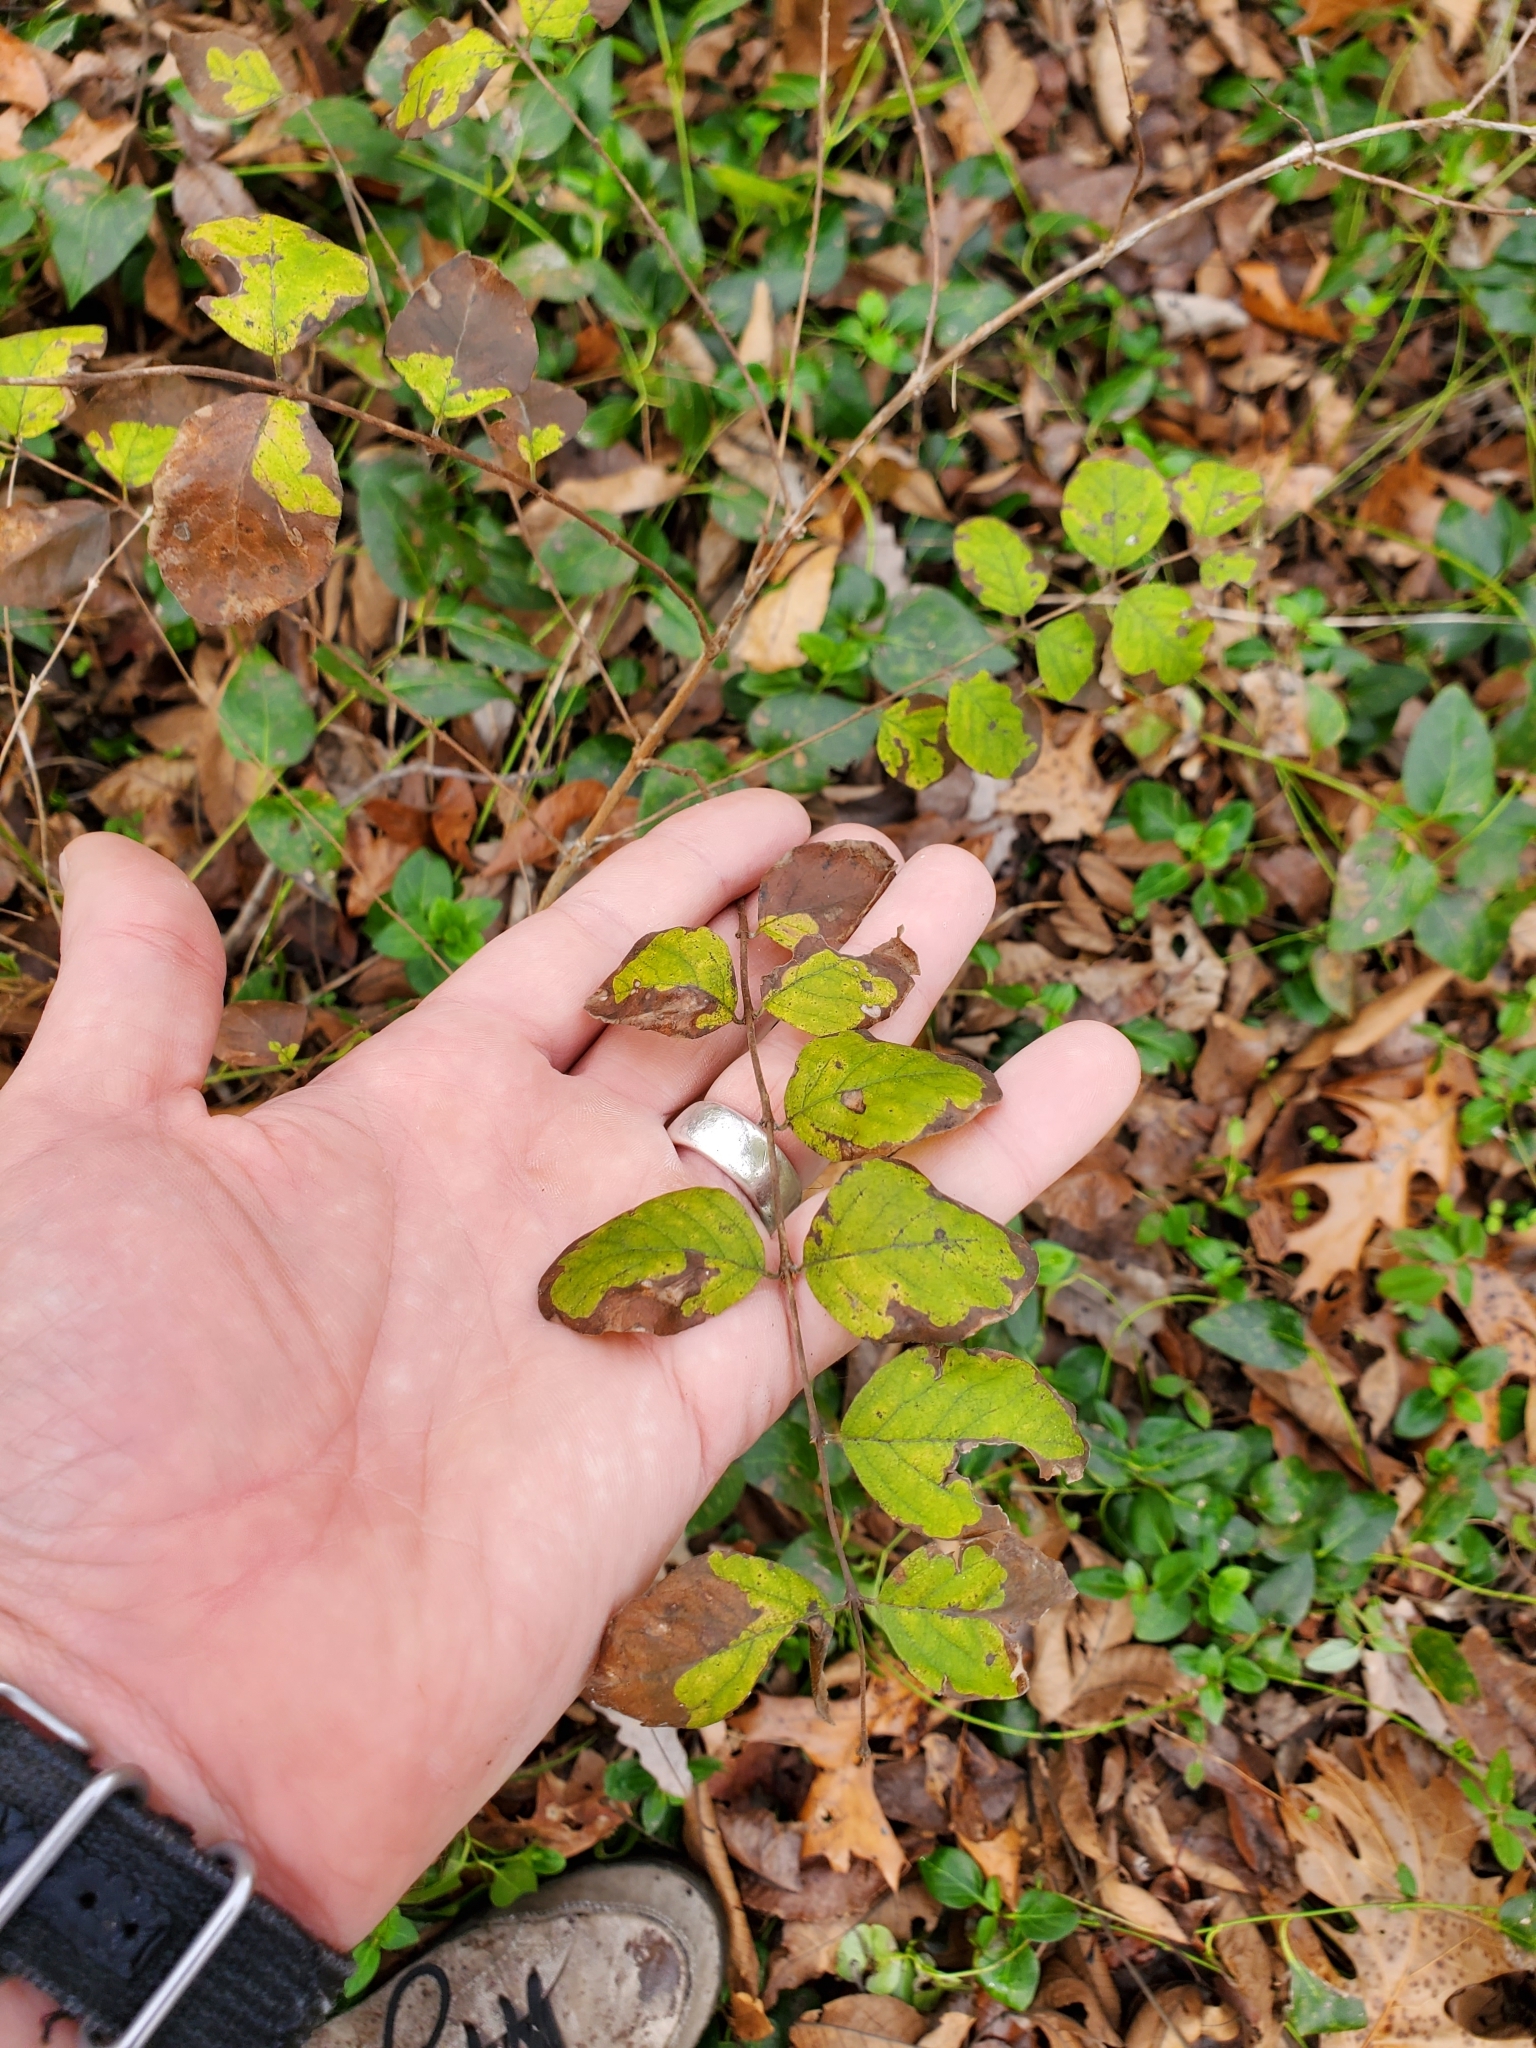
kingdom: Plantae
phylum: Tracheophyta
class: Magnoliopsida
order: Dipsacales
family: Caprifoliaceae
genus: Symphoricarpos
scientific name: Symphoricarpos orbiculatus
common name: Coralberry
